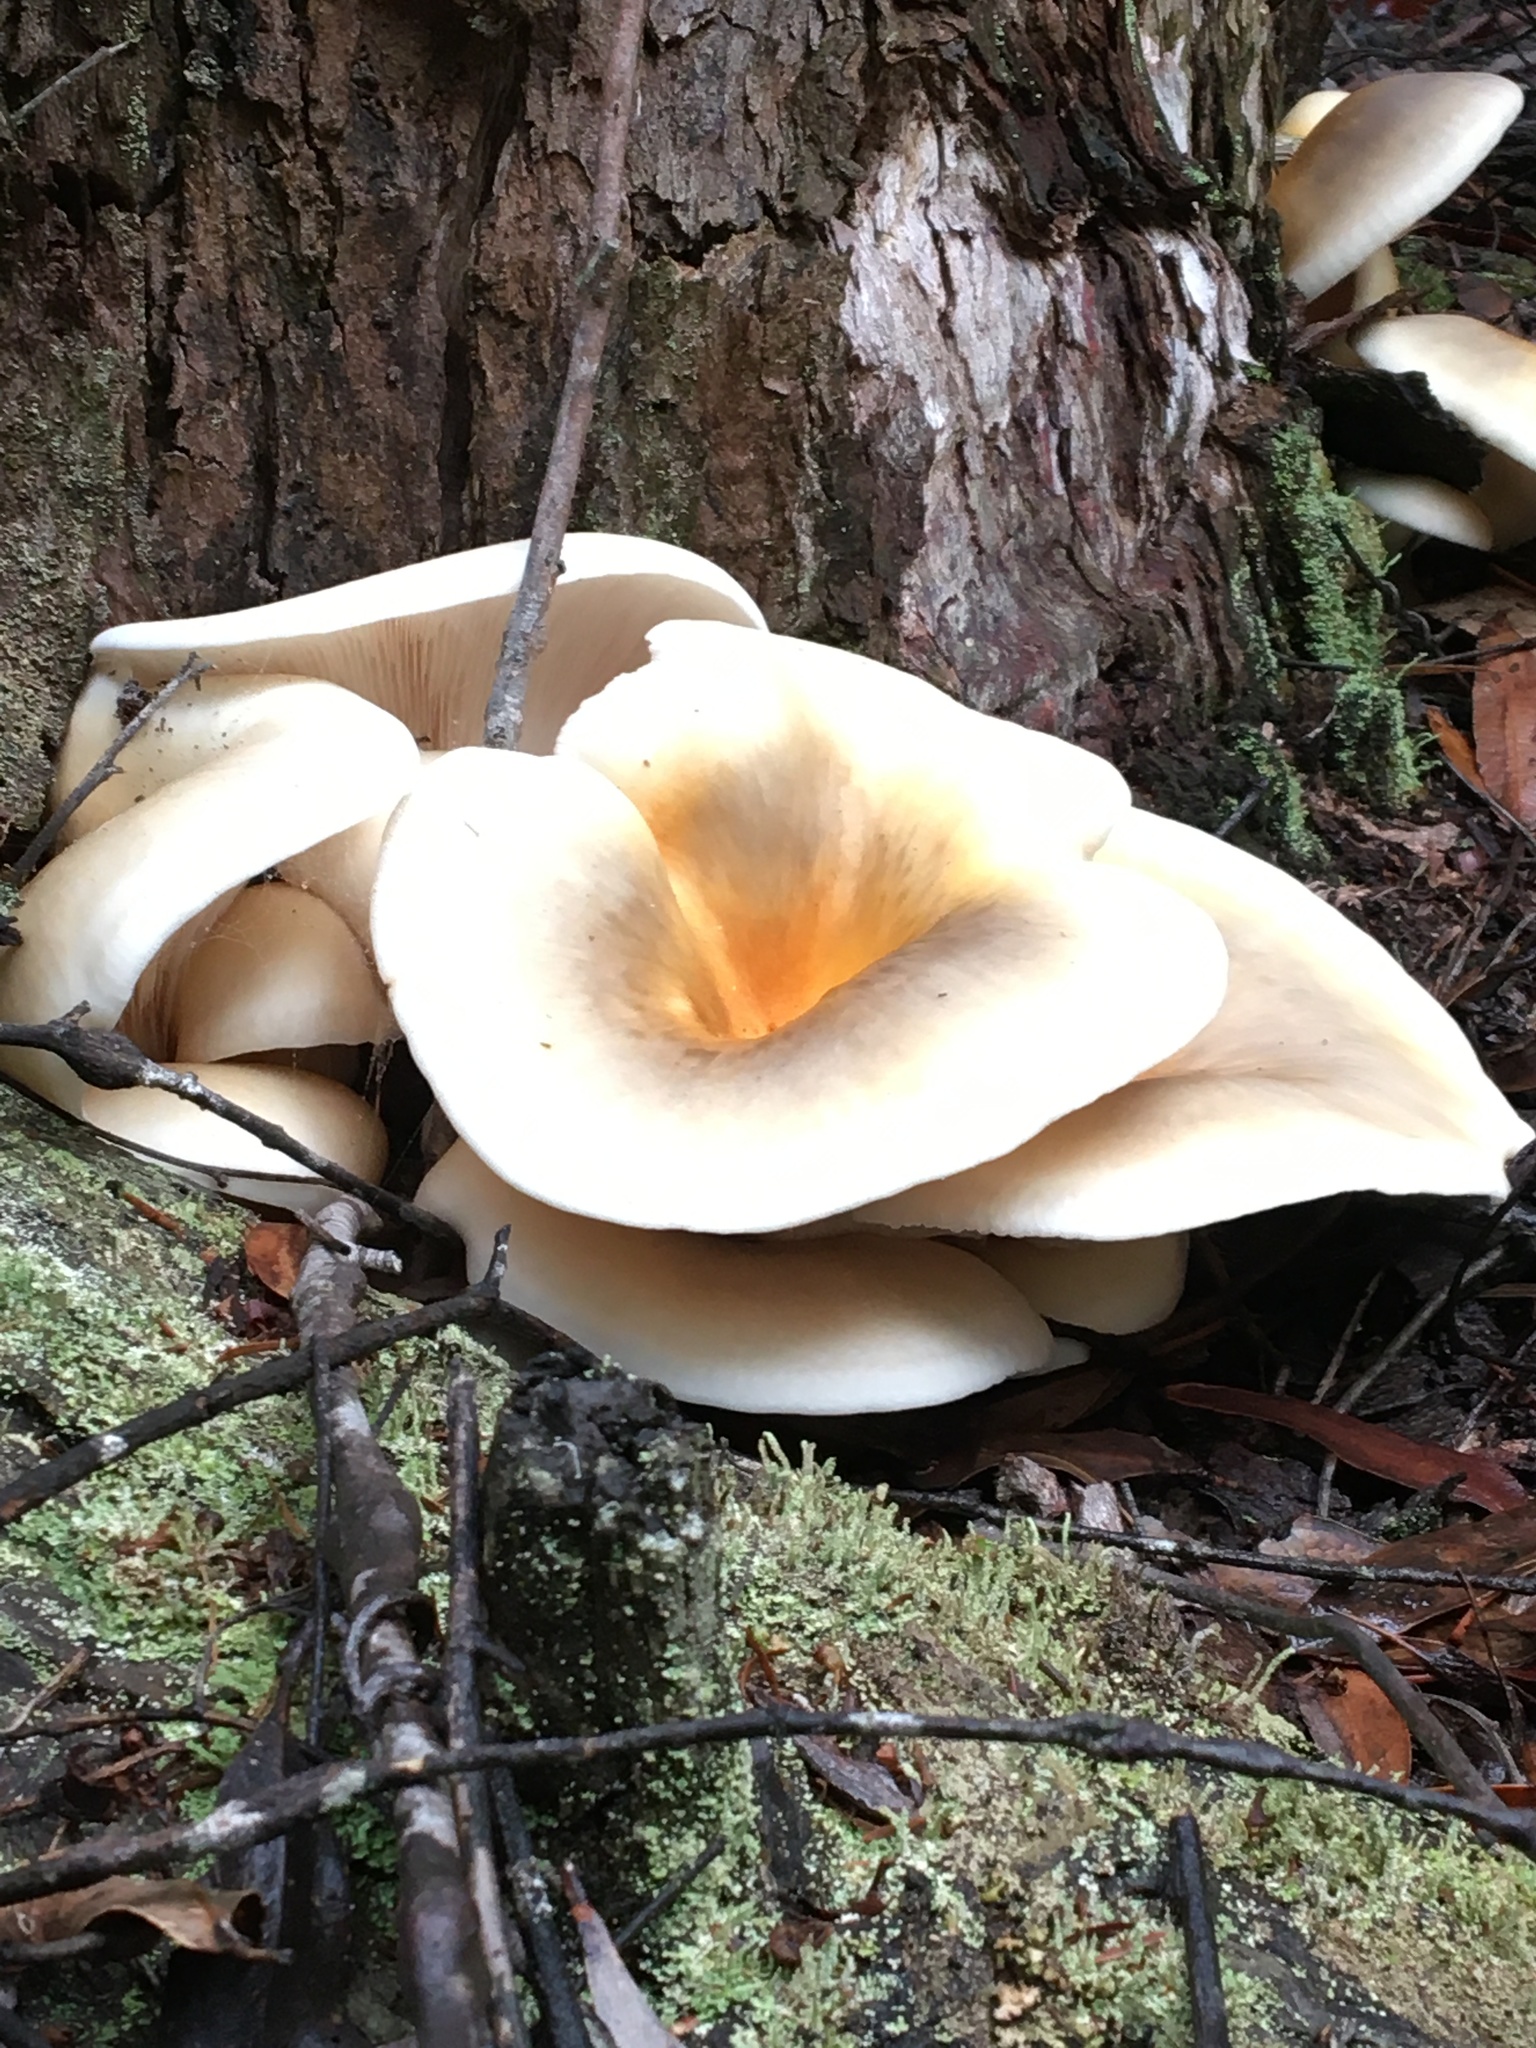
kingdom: Fungi
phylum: Basidiomycota
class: Agaricomycetes
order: Agaricales
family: Omphalotaceae
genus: Omphalotus
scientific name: Omphalotus nidiformis
